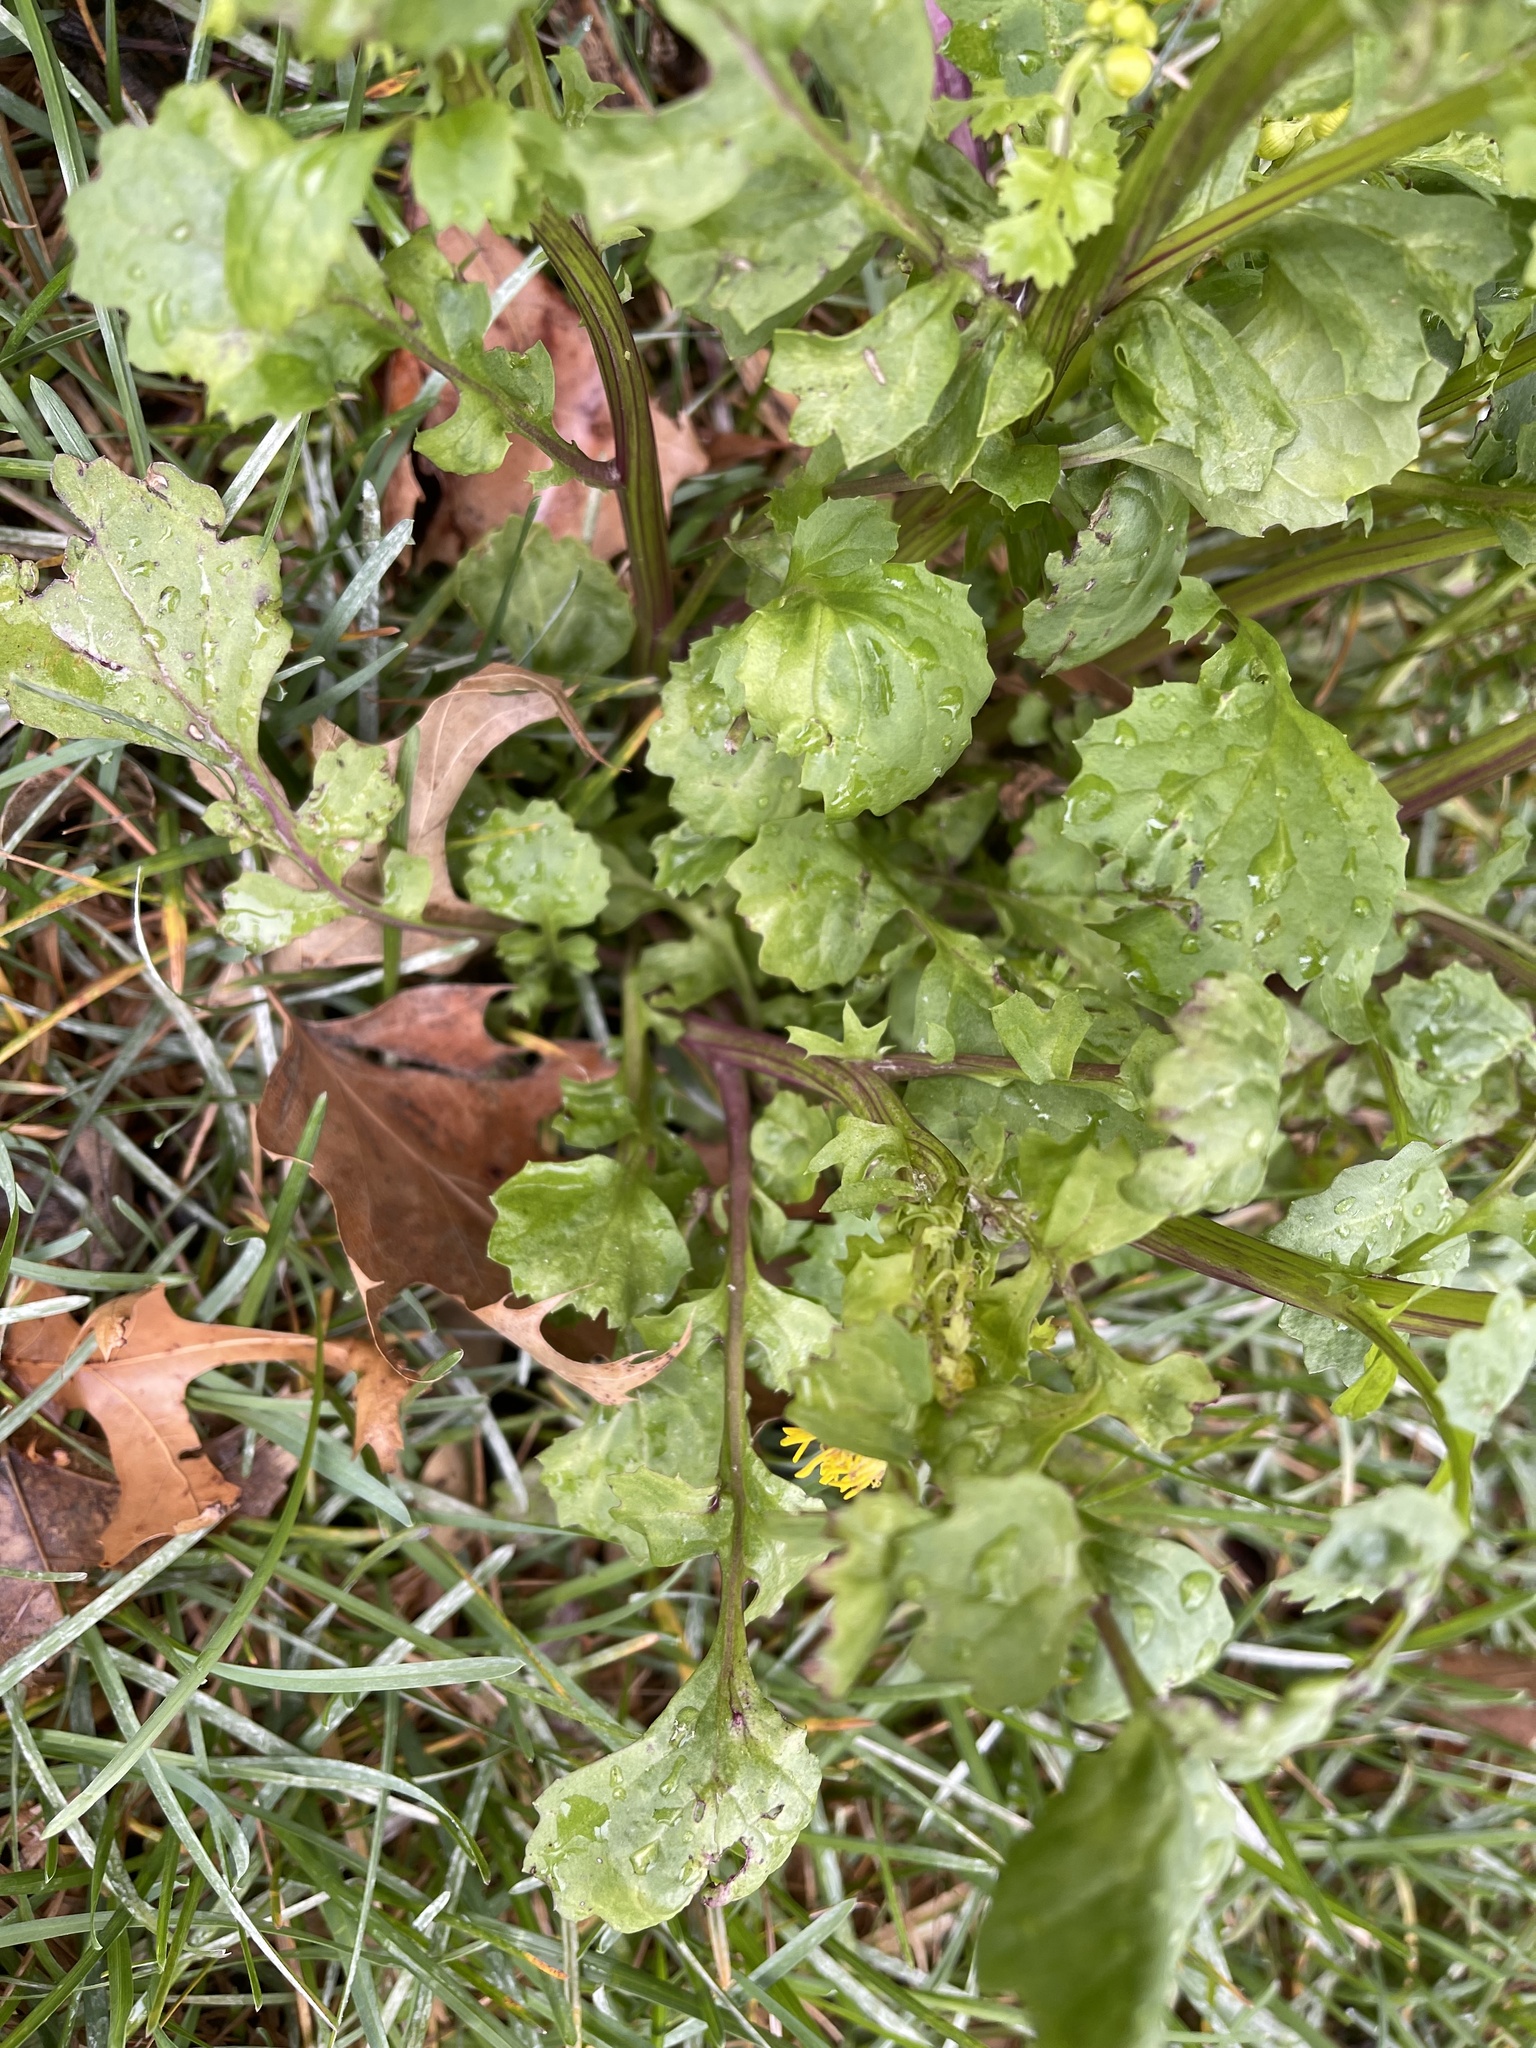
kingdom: Plantae
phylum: Tracheophyta
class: Magnoliopsida
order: Asterales
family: Asteraceae
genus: Packera
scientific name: Packera glabella
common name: Butterweed
